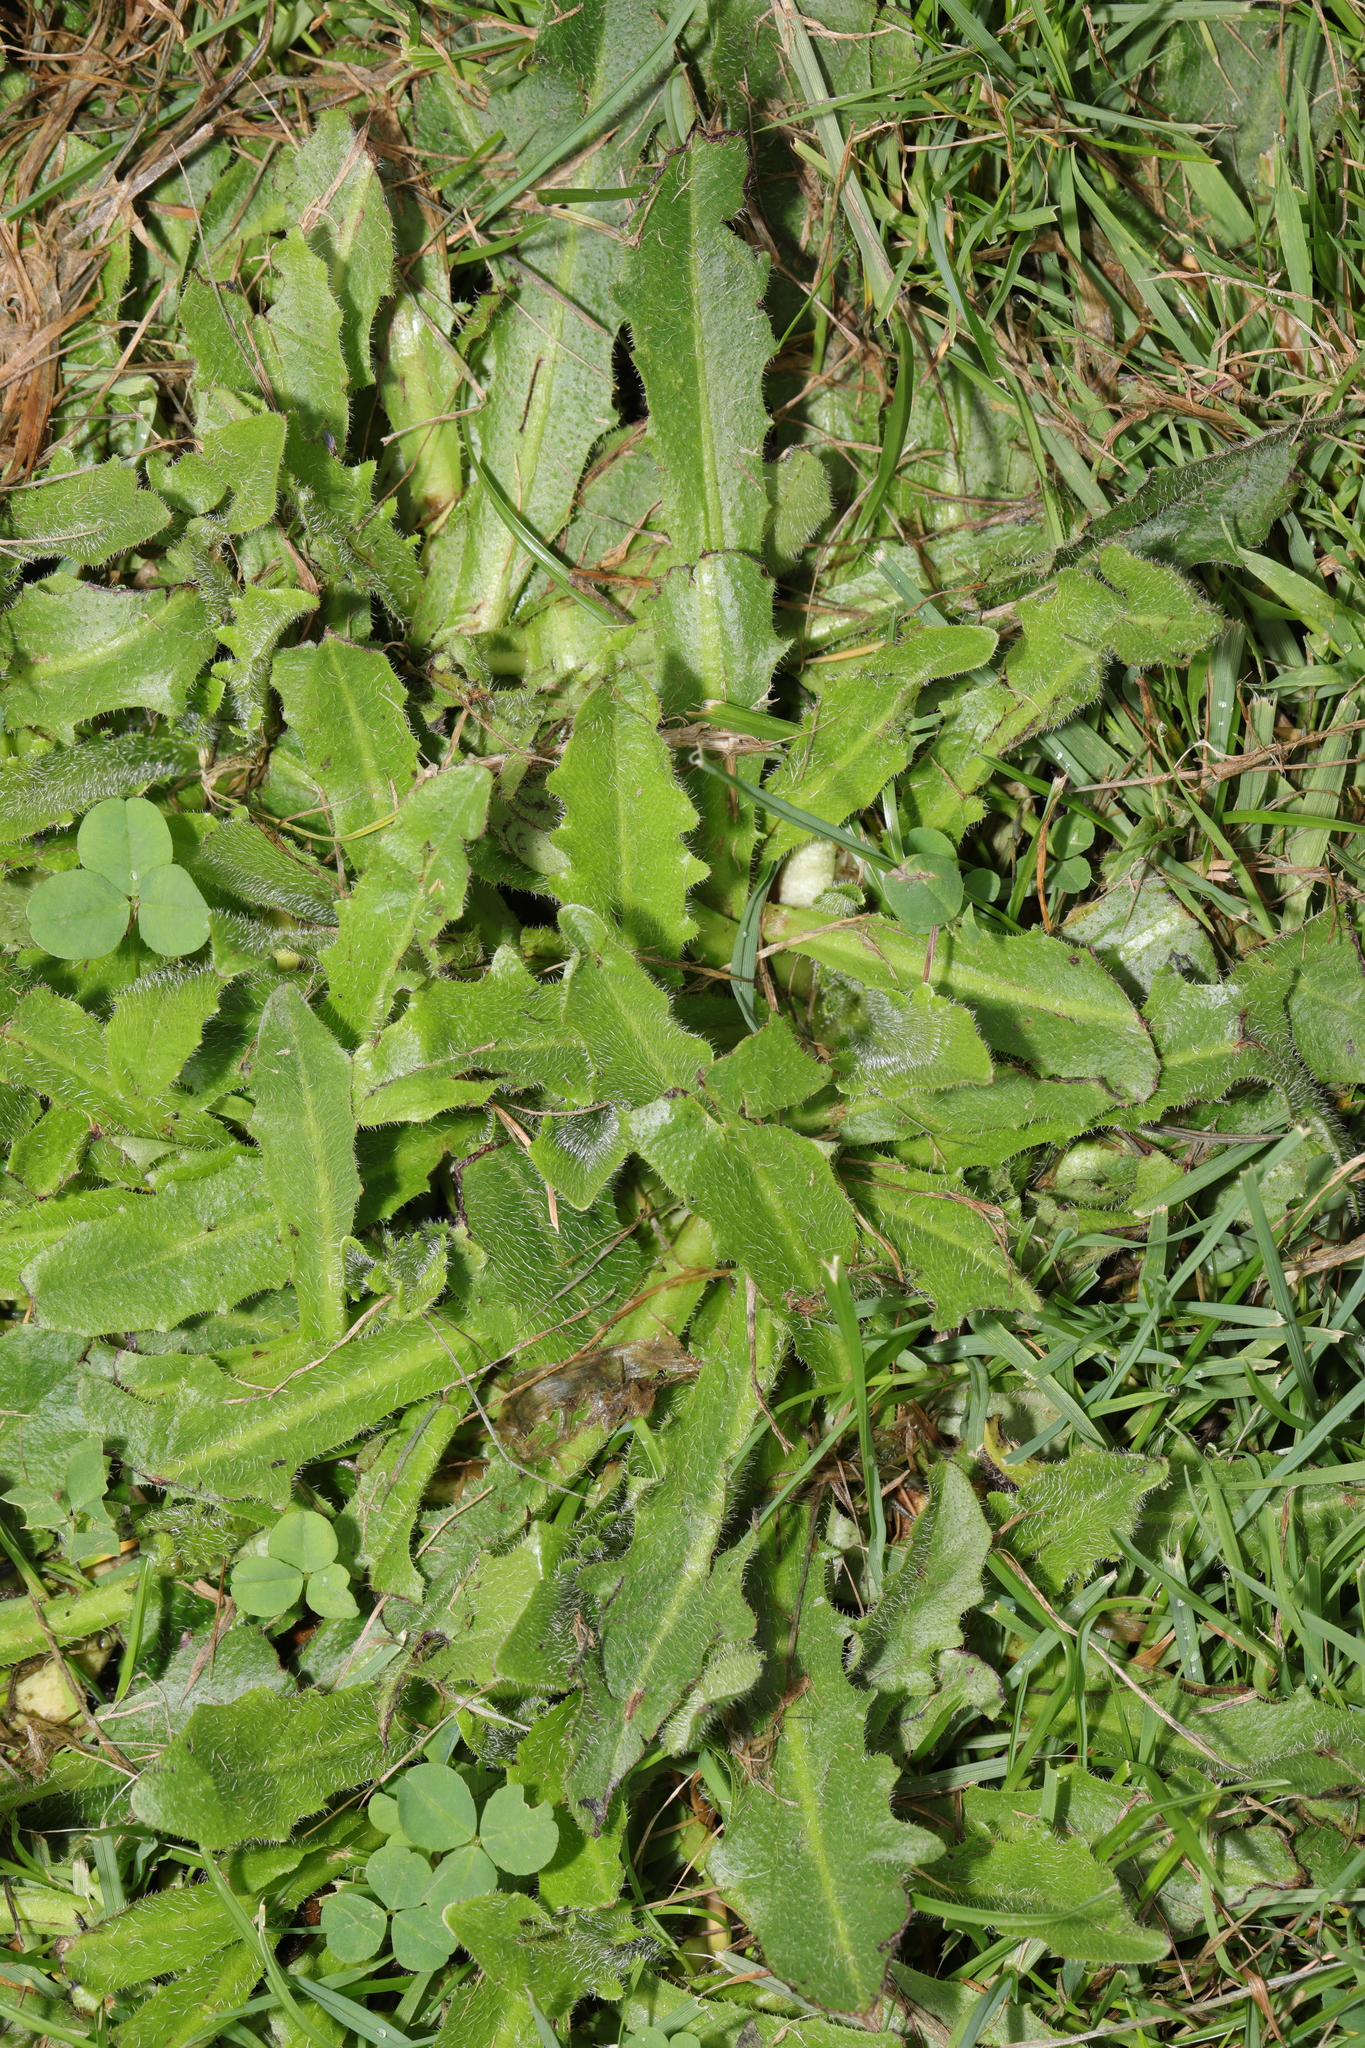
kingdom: Plantae
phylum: Tracheophyta
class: Magnoliopsida
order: Asterales
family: Asteraceae
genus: Hypochaeris
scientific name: Hypochaeris radicata
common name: Flatweed
